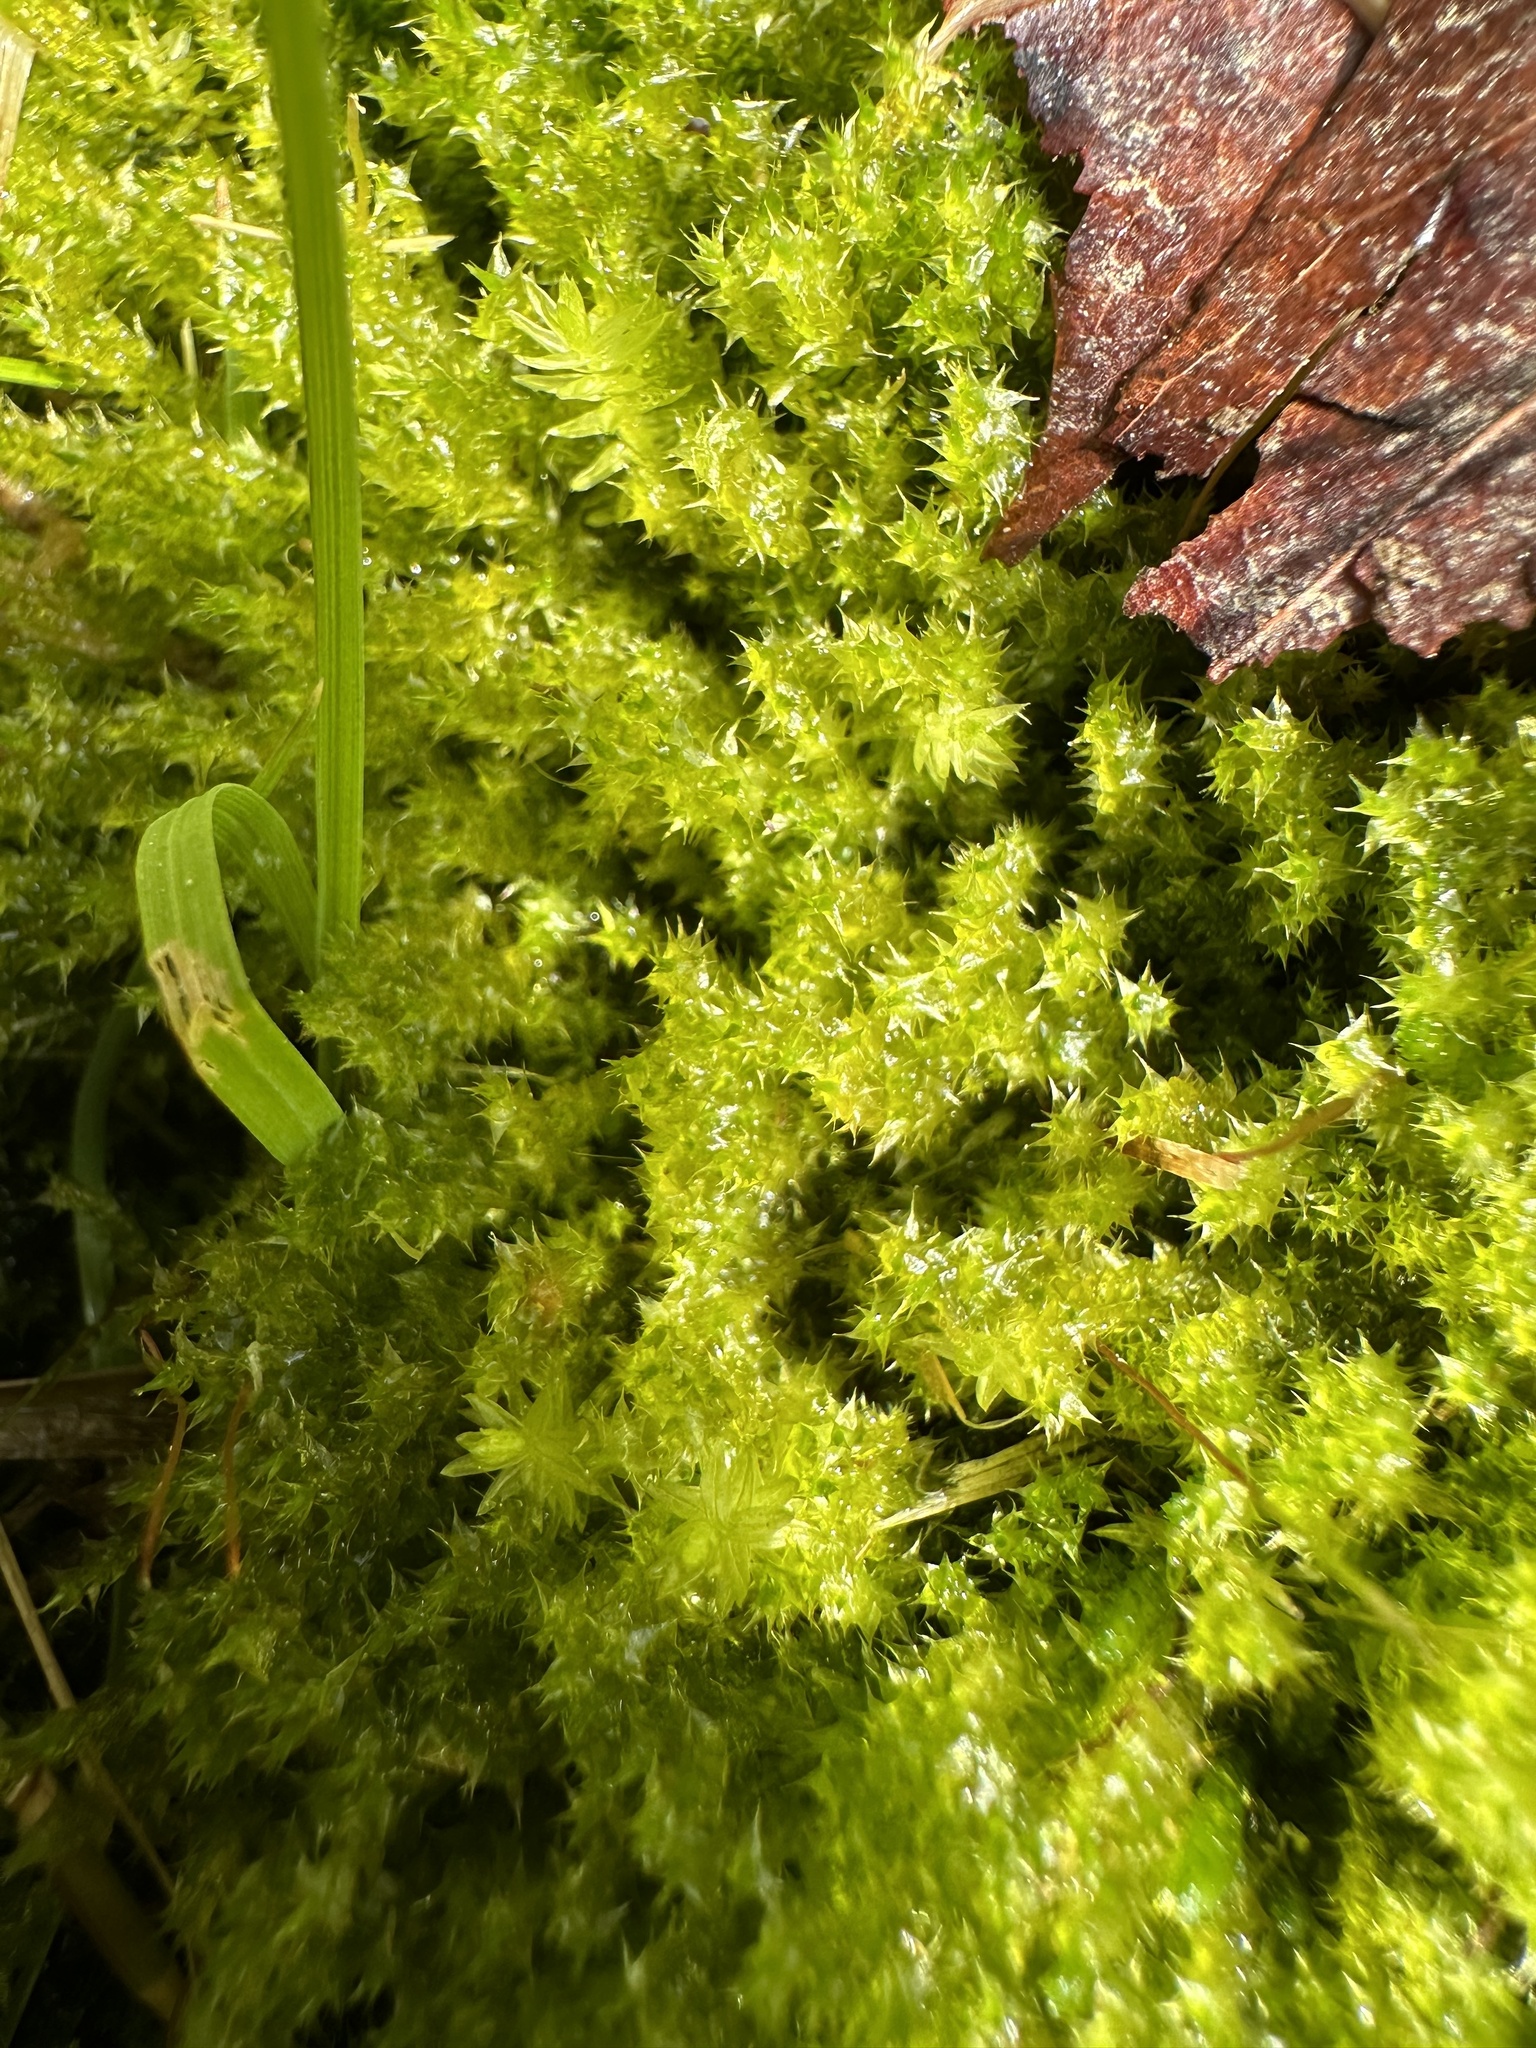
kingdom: Plantae
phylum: Bryophyta
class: Bryopsida
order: Hypnales
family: Hylocomiaceae
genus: Rhytidiadelphus
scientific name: Rhytidiadelphus squarrosus
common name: Springy turf-moss
